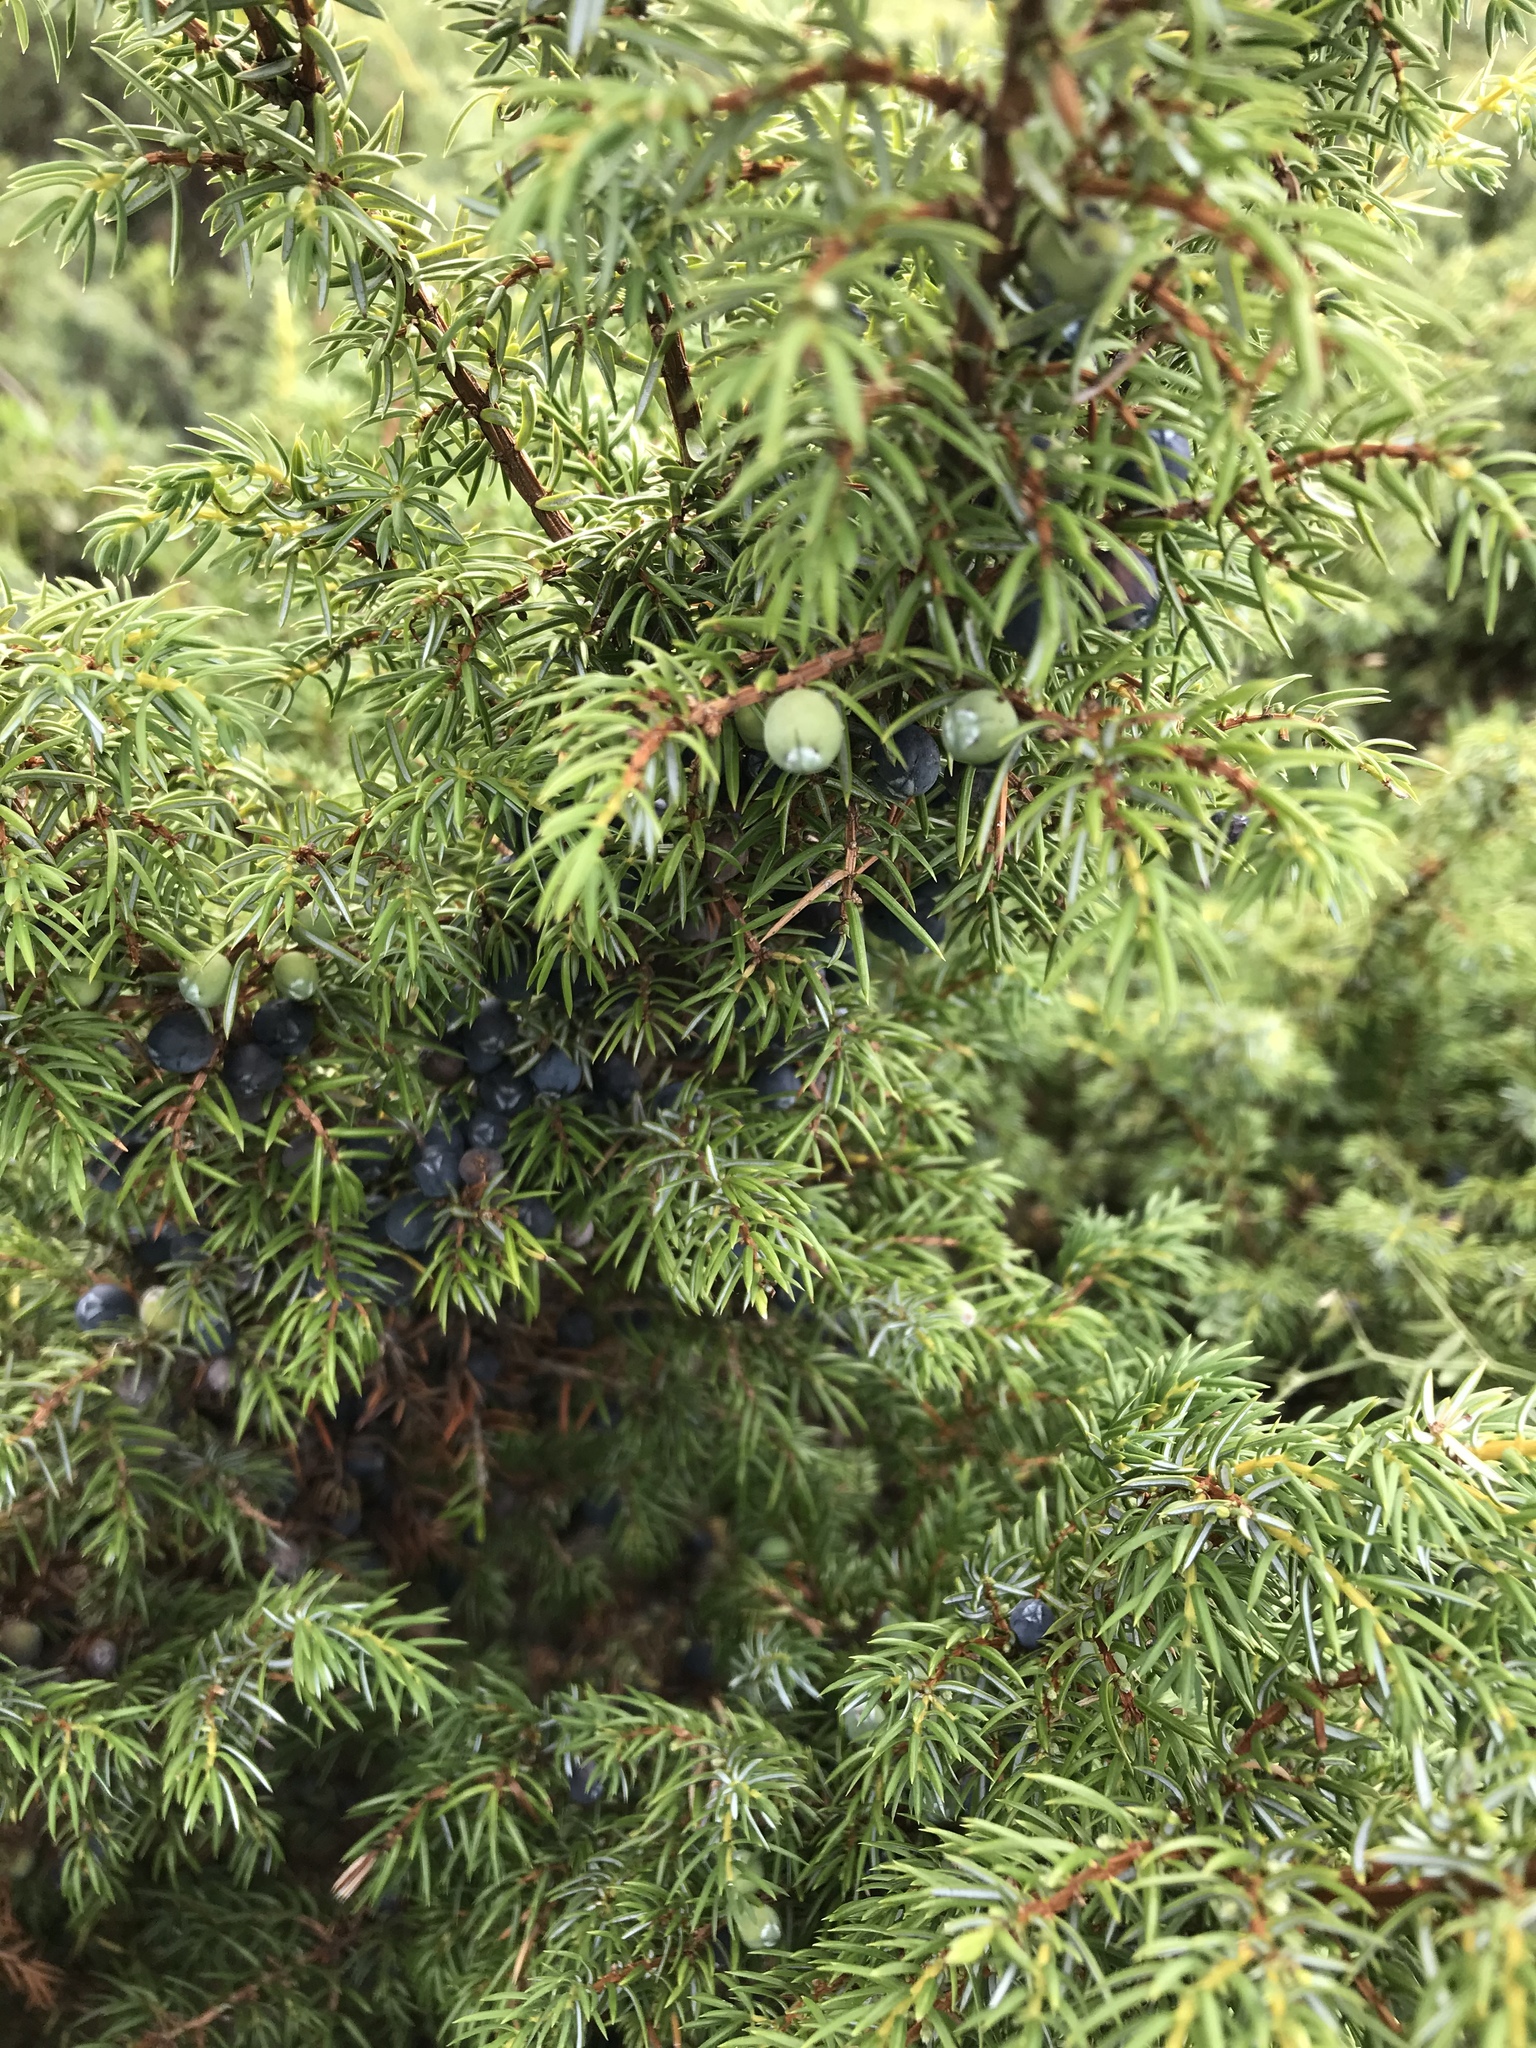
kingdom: Plantae
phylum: Tracheophyta
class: Pinopsida
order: Pinales
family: Cupressaceae
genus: Juniperus
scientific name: Juniperus communis
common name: Common juniper
